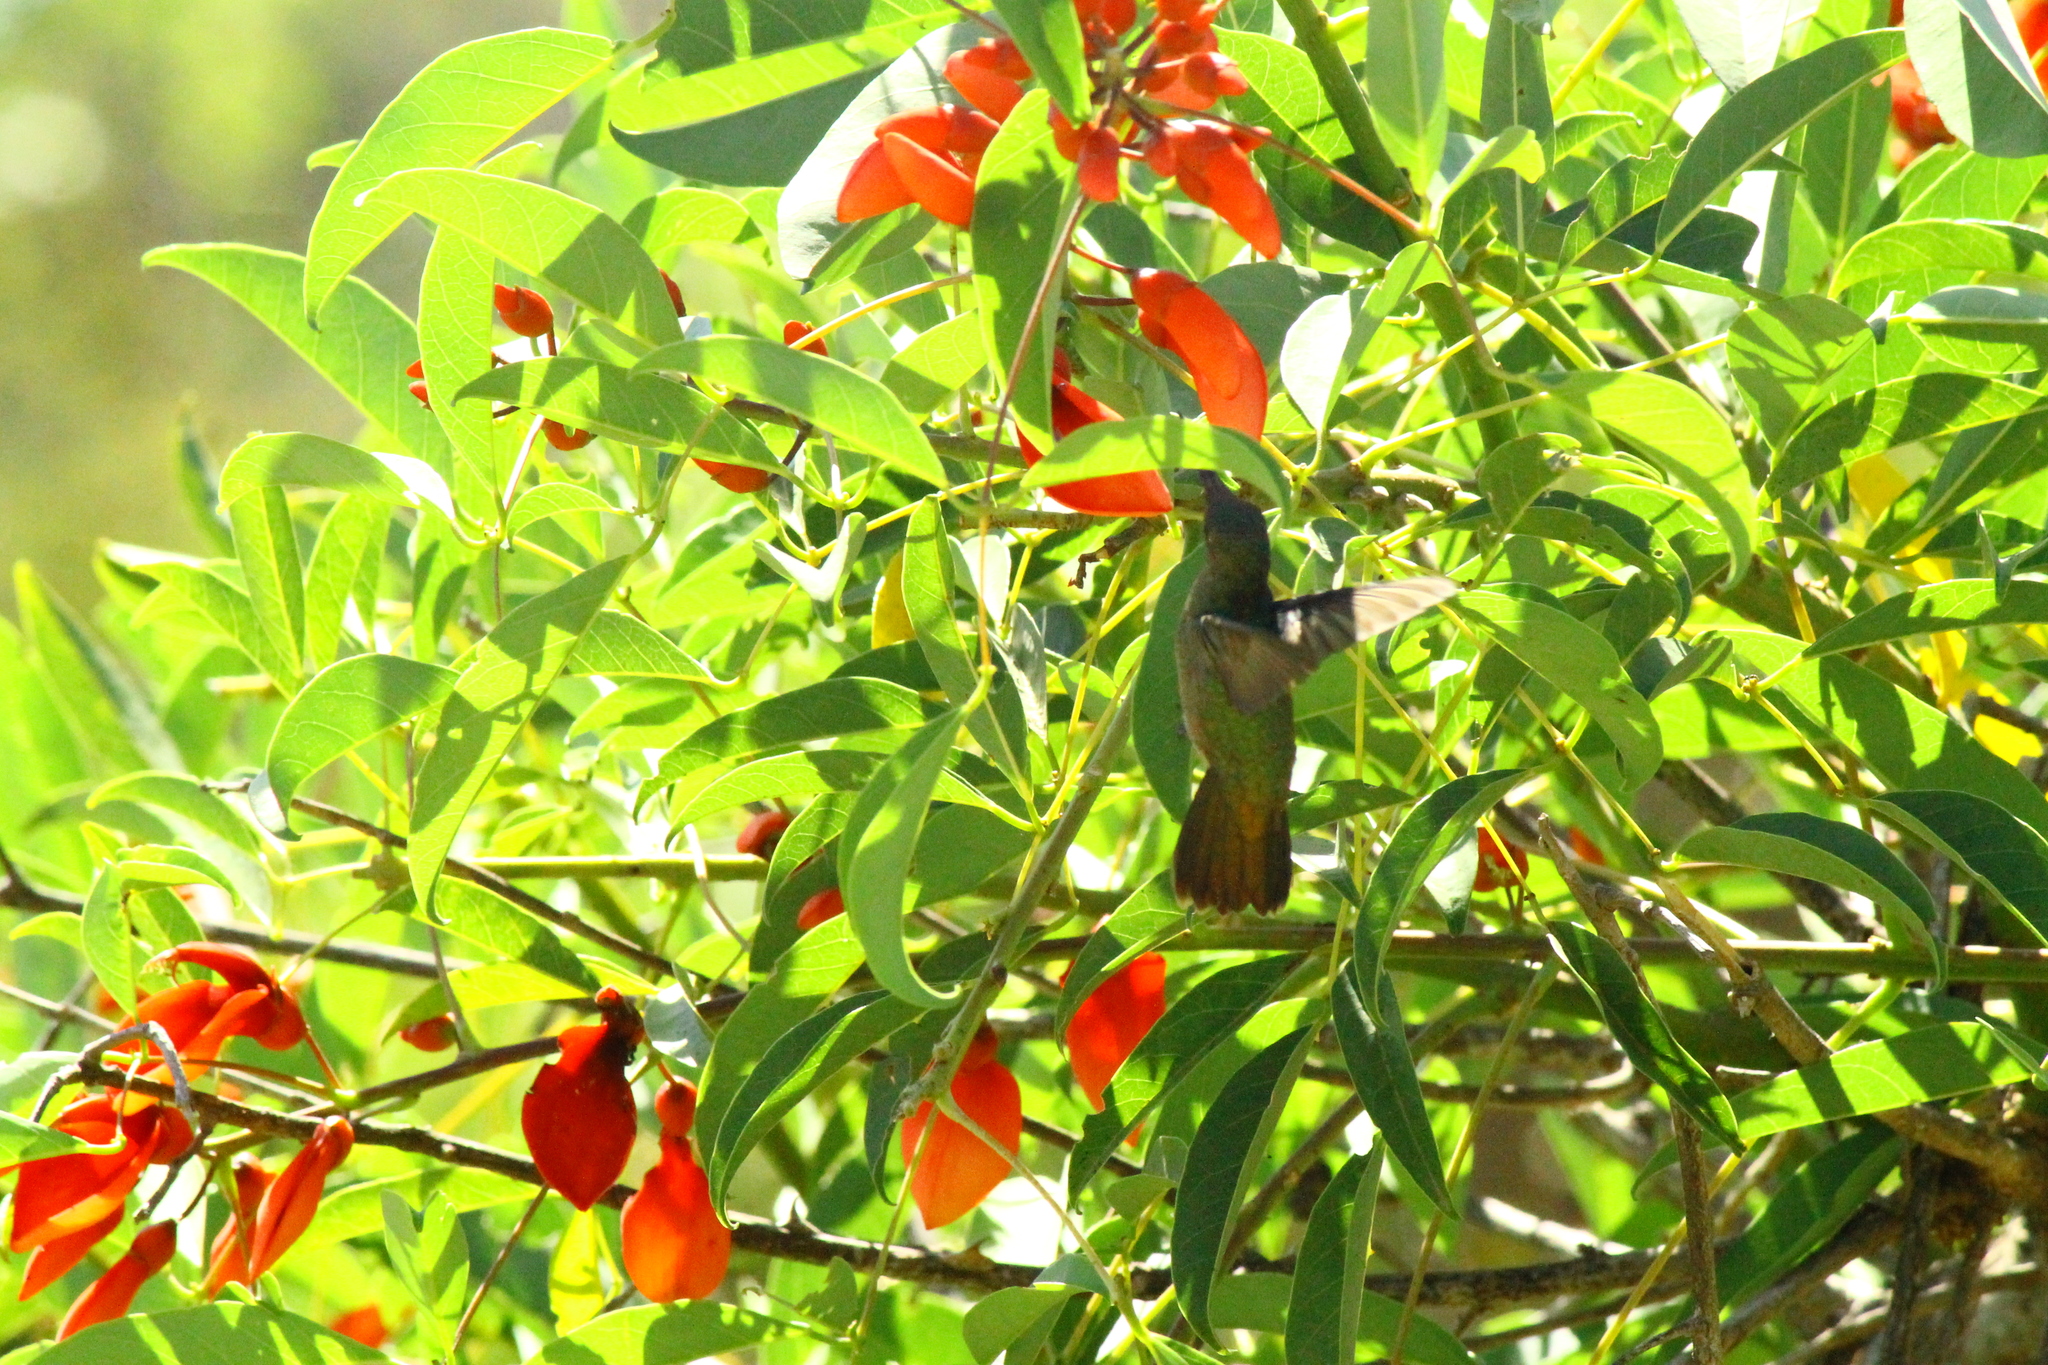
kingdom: Animalia
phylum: Chordata
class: Aves
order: Apodiformes
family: Trochilidae
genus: Hylocharis
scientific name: Hylocharis chrysura
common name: Gilded sapphire
